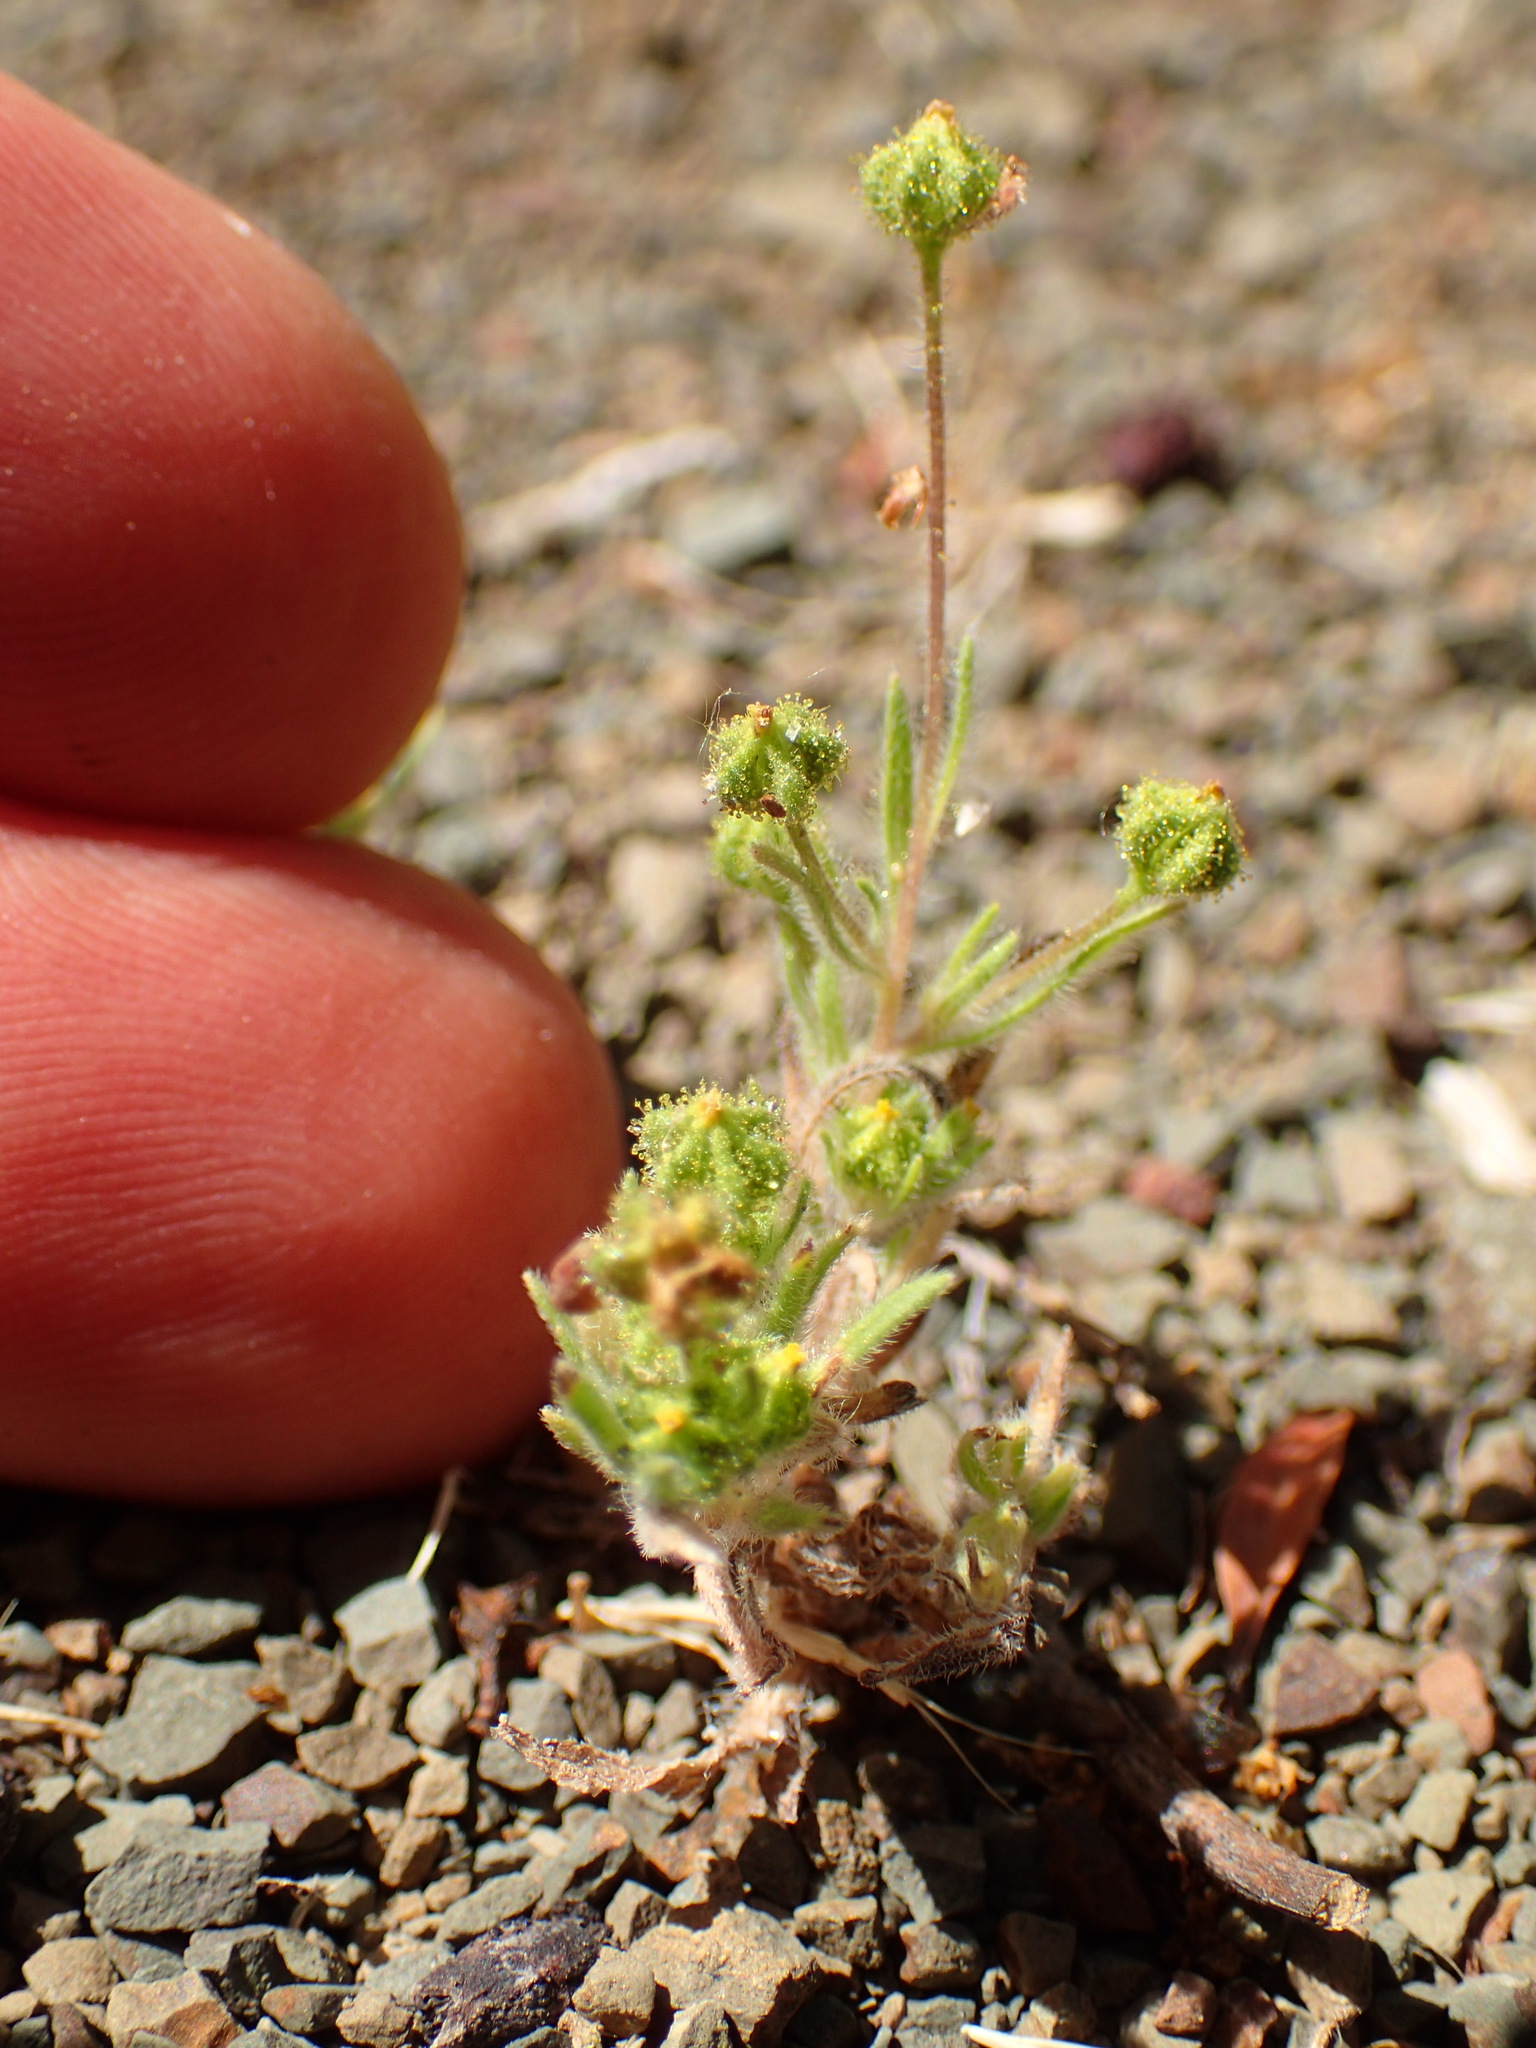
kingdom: Plantae
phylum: Tracheophyta
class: Magnoliopsida
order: Asterales
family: Asteraceae
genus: Madia
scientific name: Madia exigua
